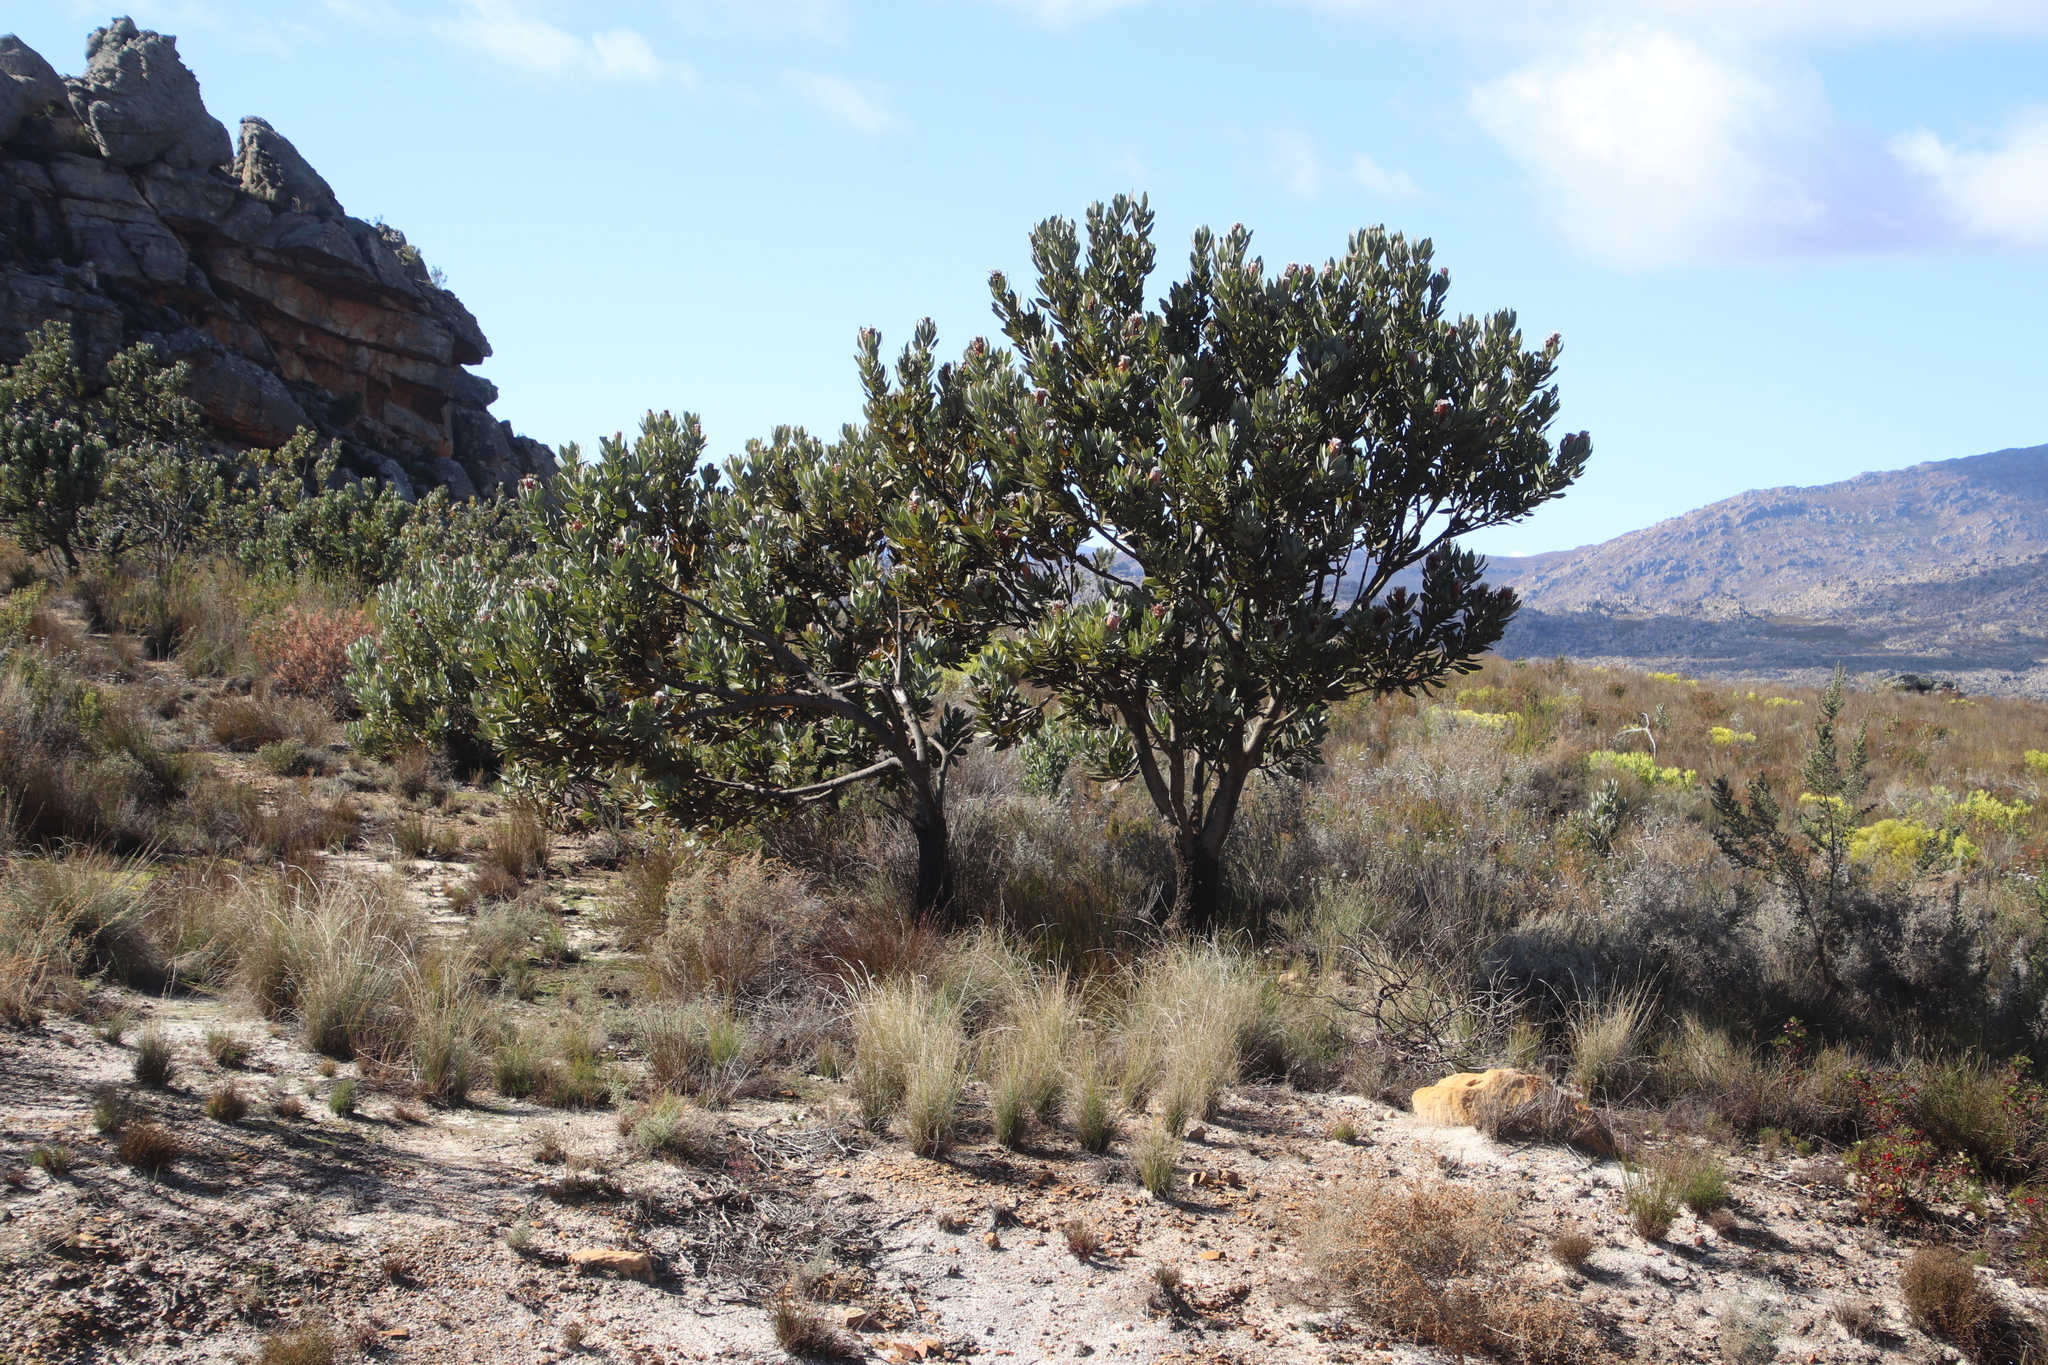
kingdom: Plantae
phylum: Tracheophyta
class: Magnoliopsida
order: Proteales
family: Proteaceae
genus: Protea
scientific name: Protea laurifolia
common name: Grey-leaf sugarbsh
